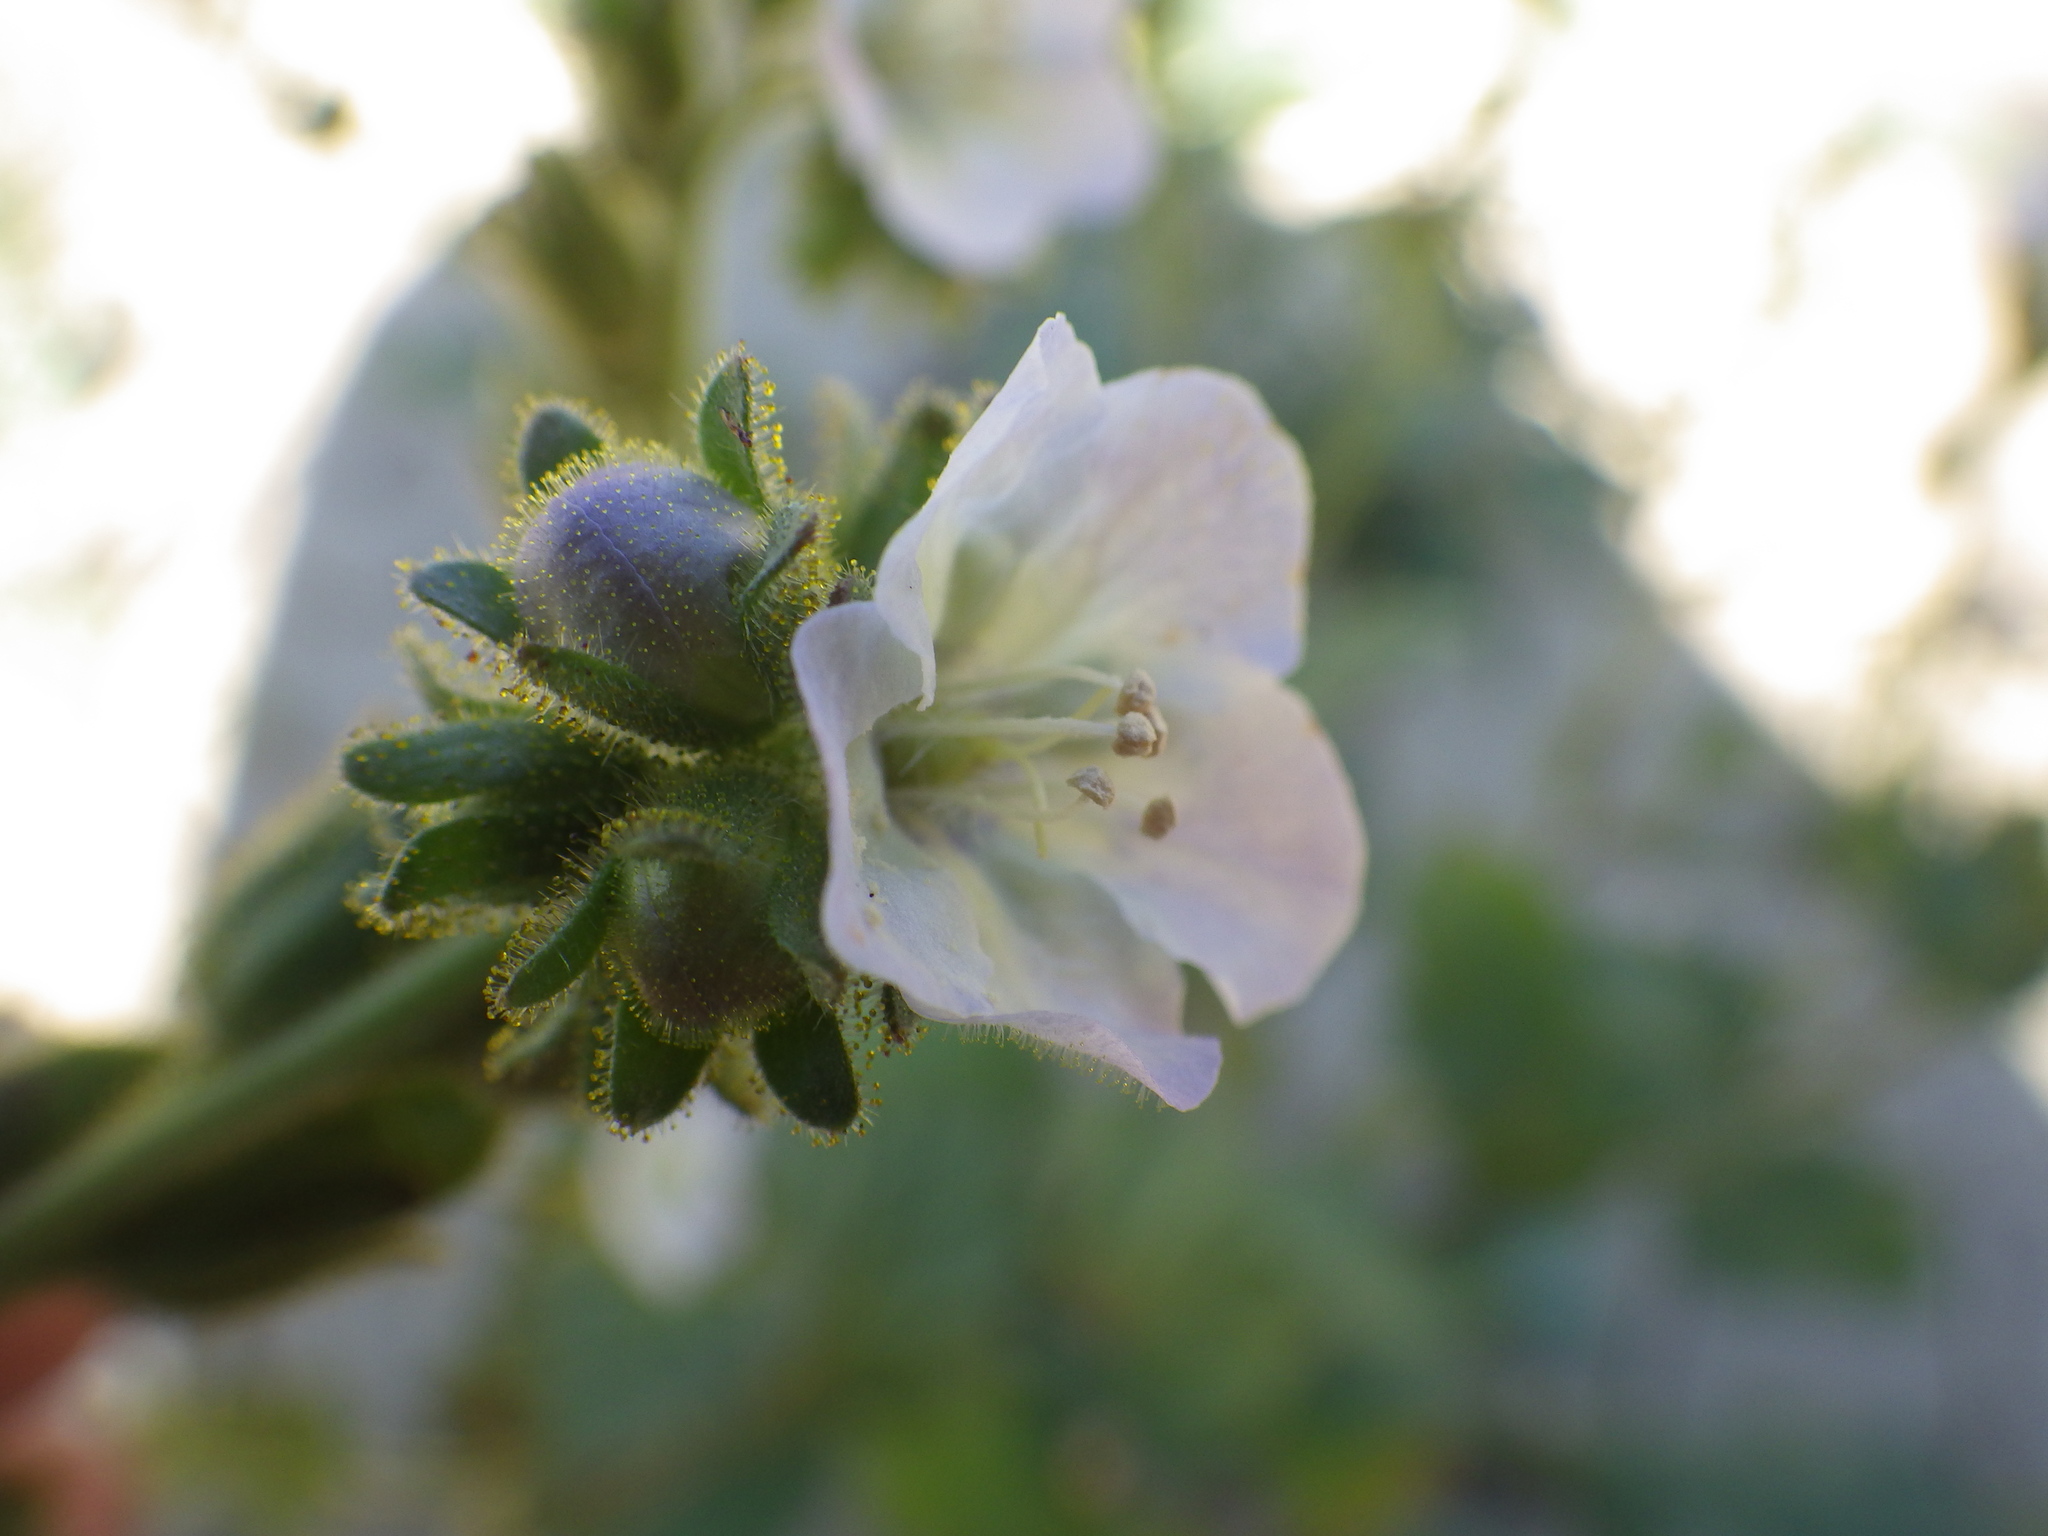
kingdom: Plantae
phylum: Tracheophyta
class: Magnoliopsida
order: Boraginales
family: Hydrophyllaceae
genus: Phacelia
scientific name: Phacelia viscida
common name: Sticky phacelia
